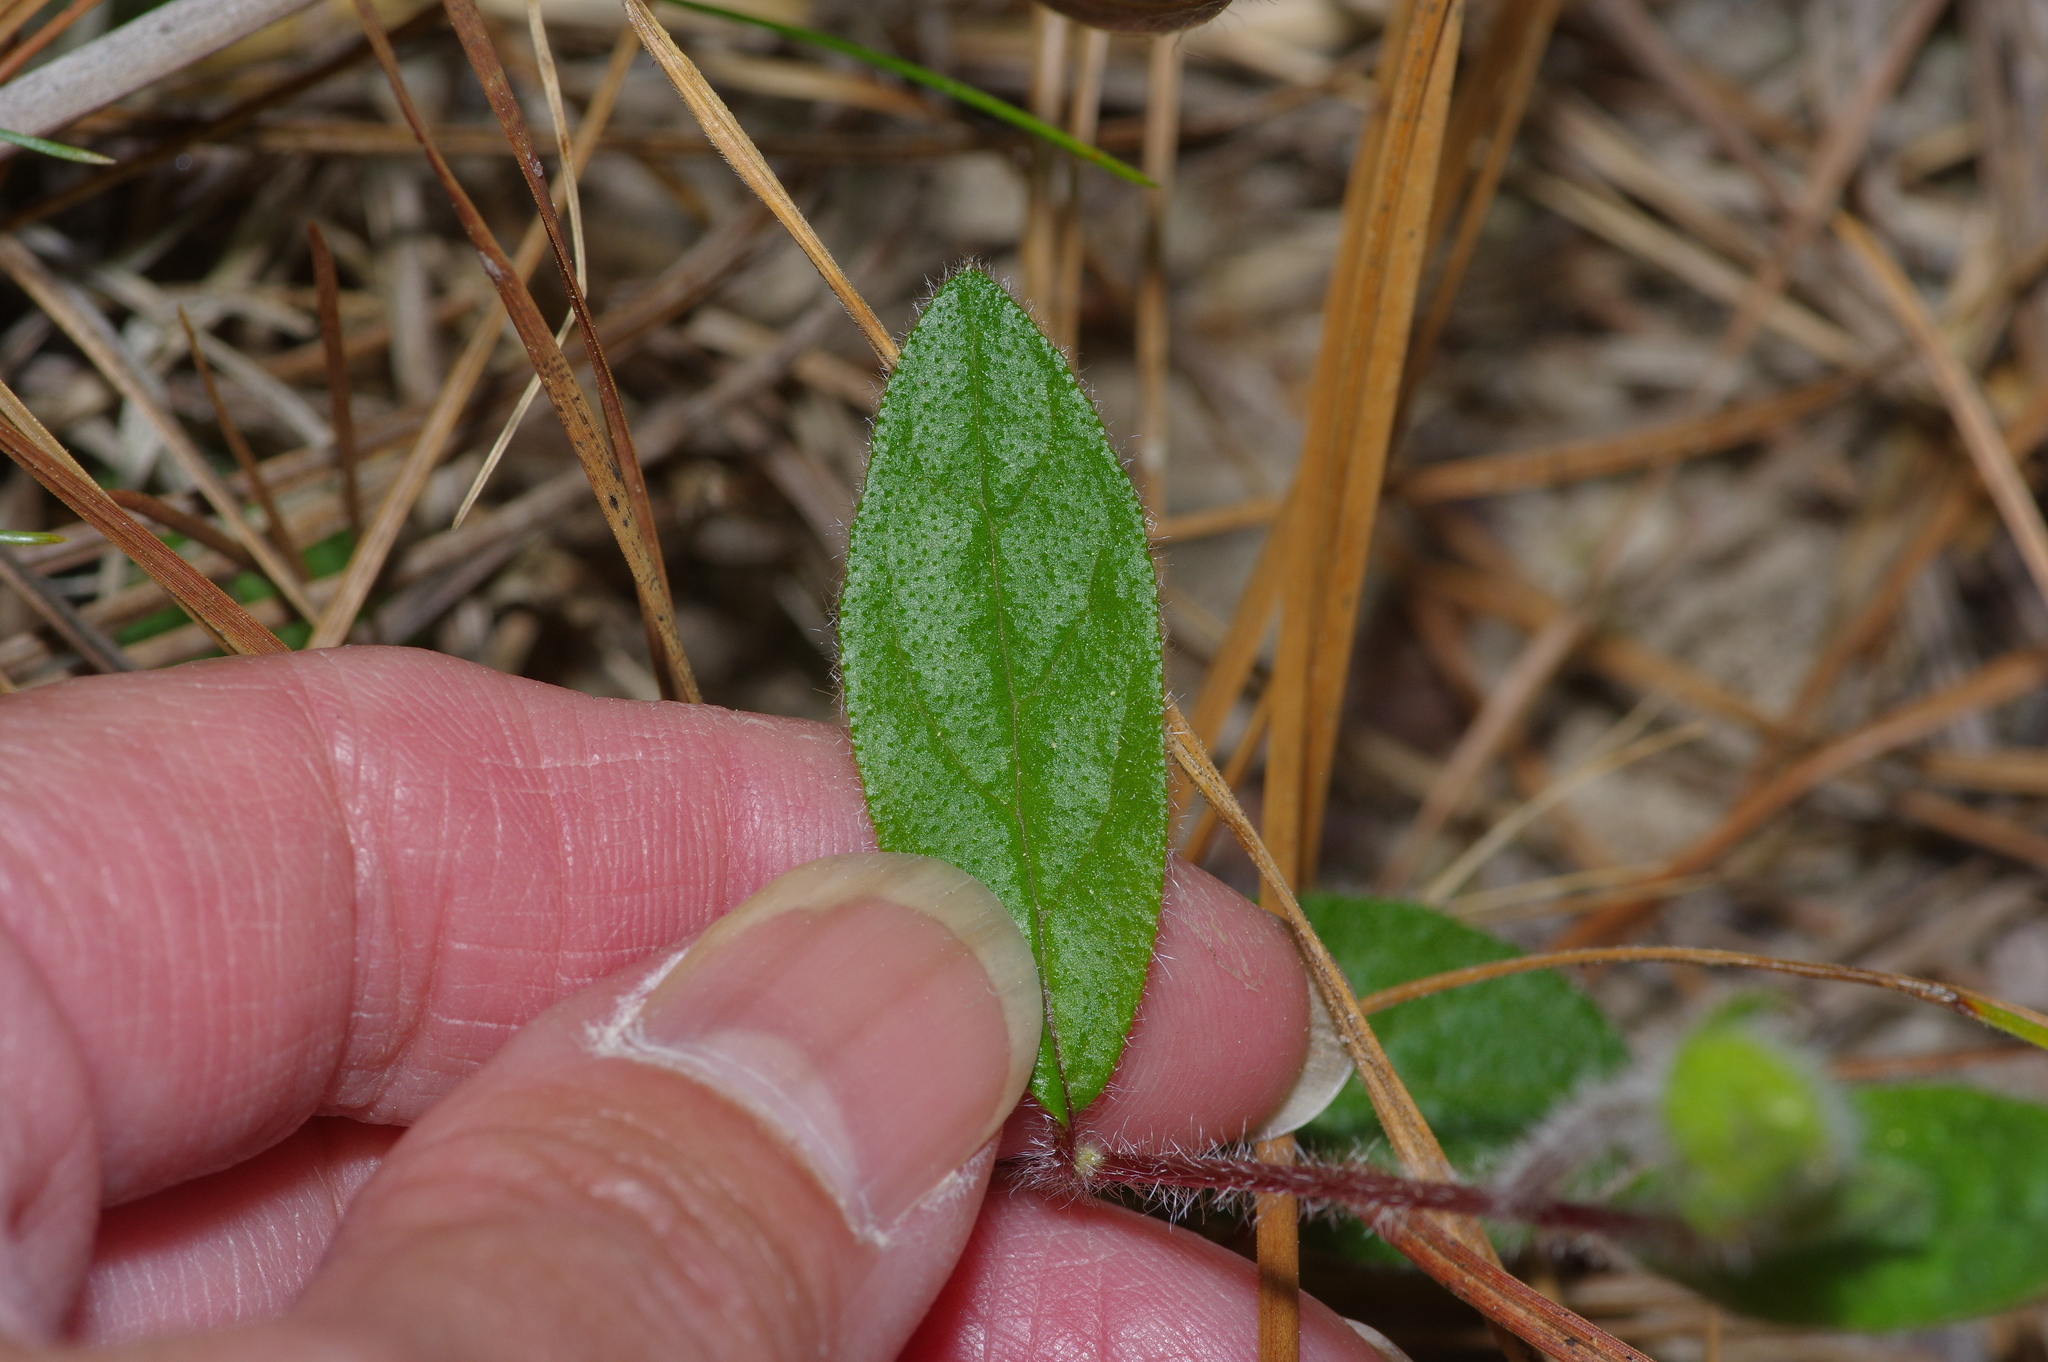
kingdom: Plantae
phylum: Tracheophyta
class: Magnoliopsida
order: Malvales
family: Cistaceae
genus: Crocanthemum
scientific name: Crocanthemum carolinianum
